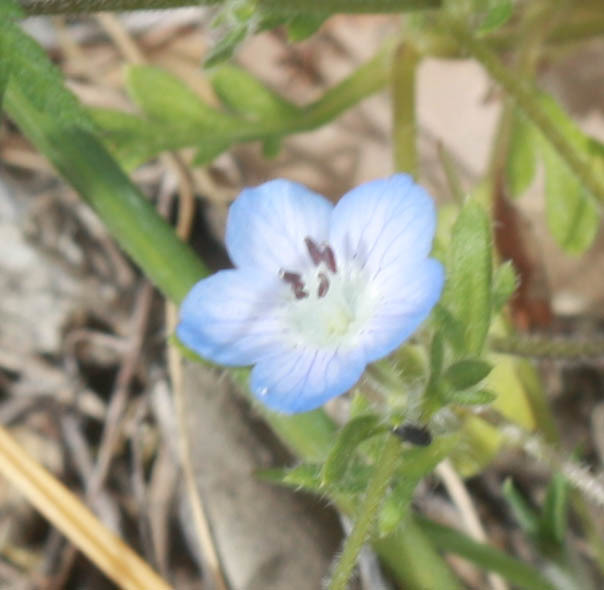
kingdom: Plantae
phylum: Tracheophyta
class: Magnoliopsida
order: Boraginales
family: Hydrophyllaceae
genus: Nemophila
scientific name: Nemophila menziesii
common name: Baby's-blue-eyes
